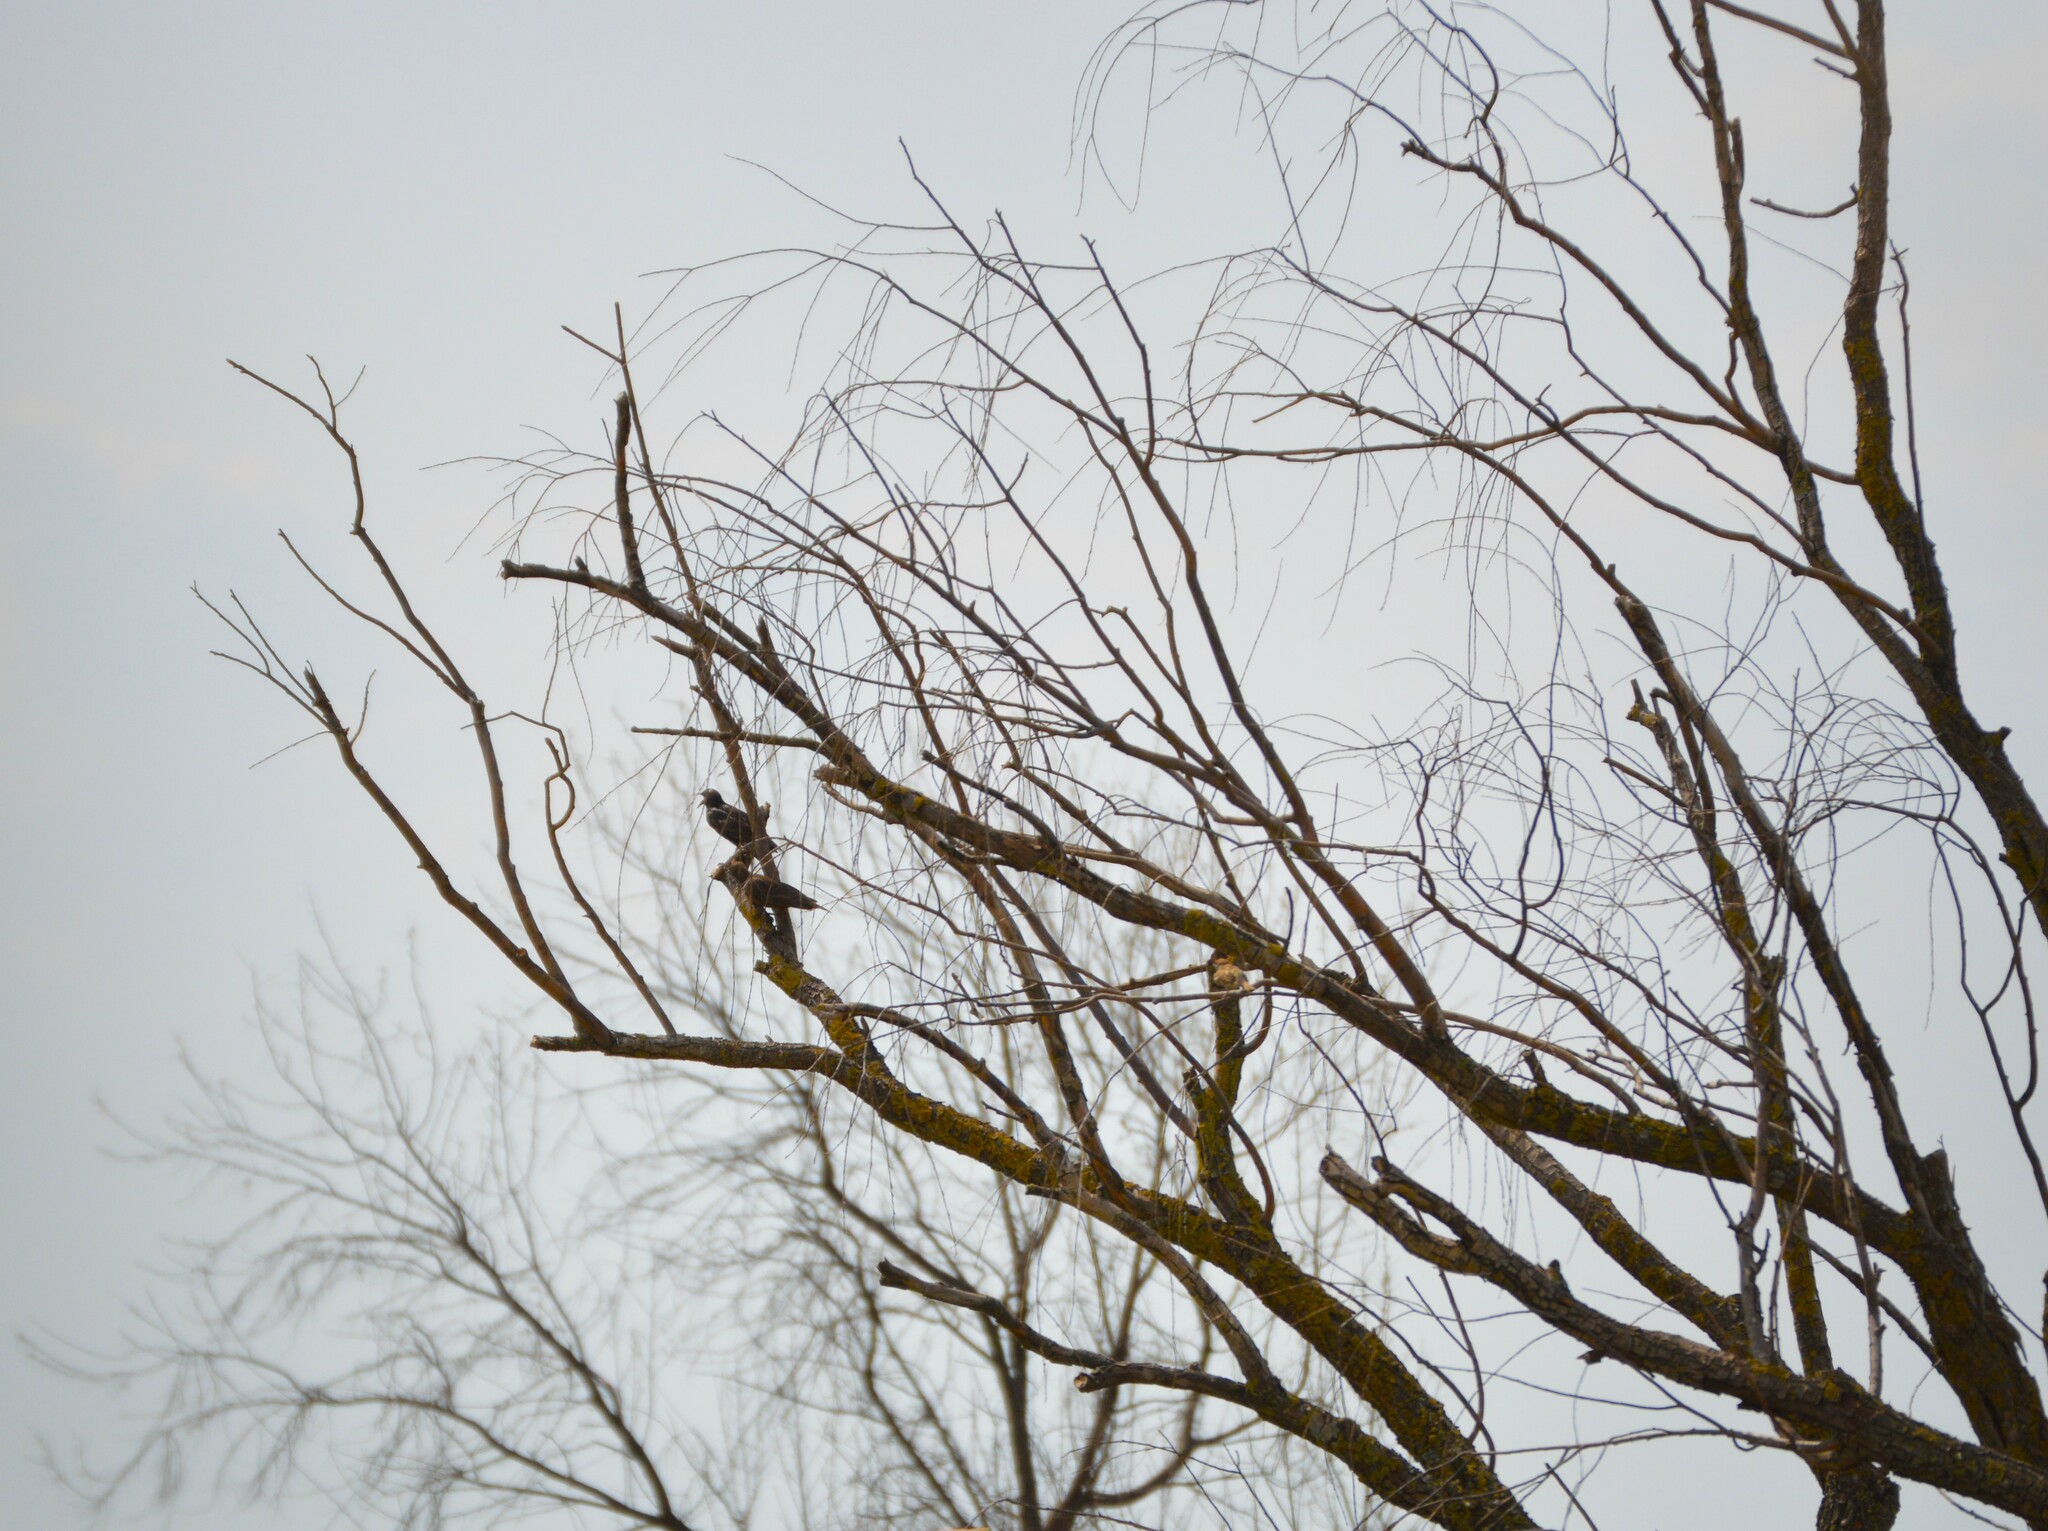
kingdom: Animalia
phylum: Chordata
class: Aves
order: Passeriformes
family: Sturnidae
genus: Sturnus
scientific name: Sturnus vulgaris
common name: Common starling
